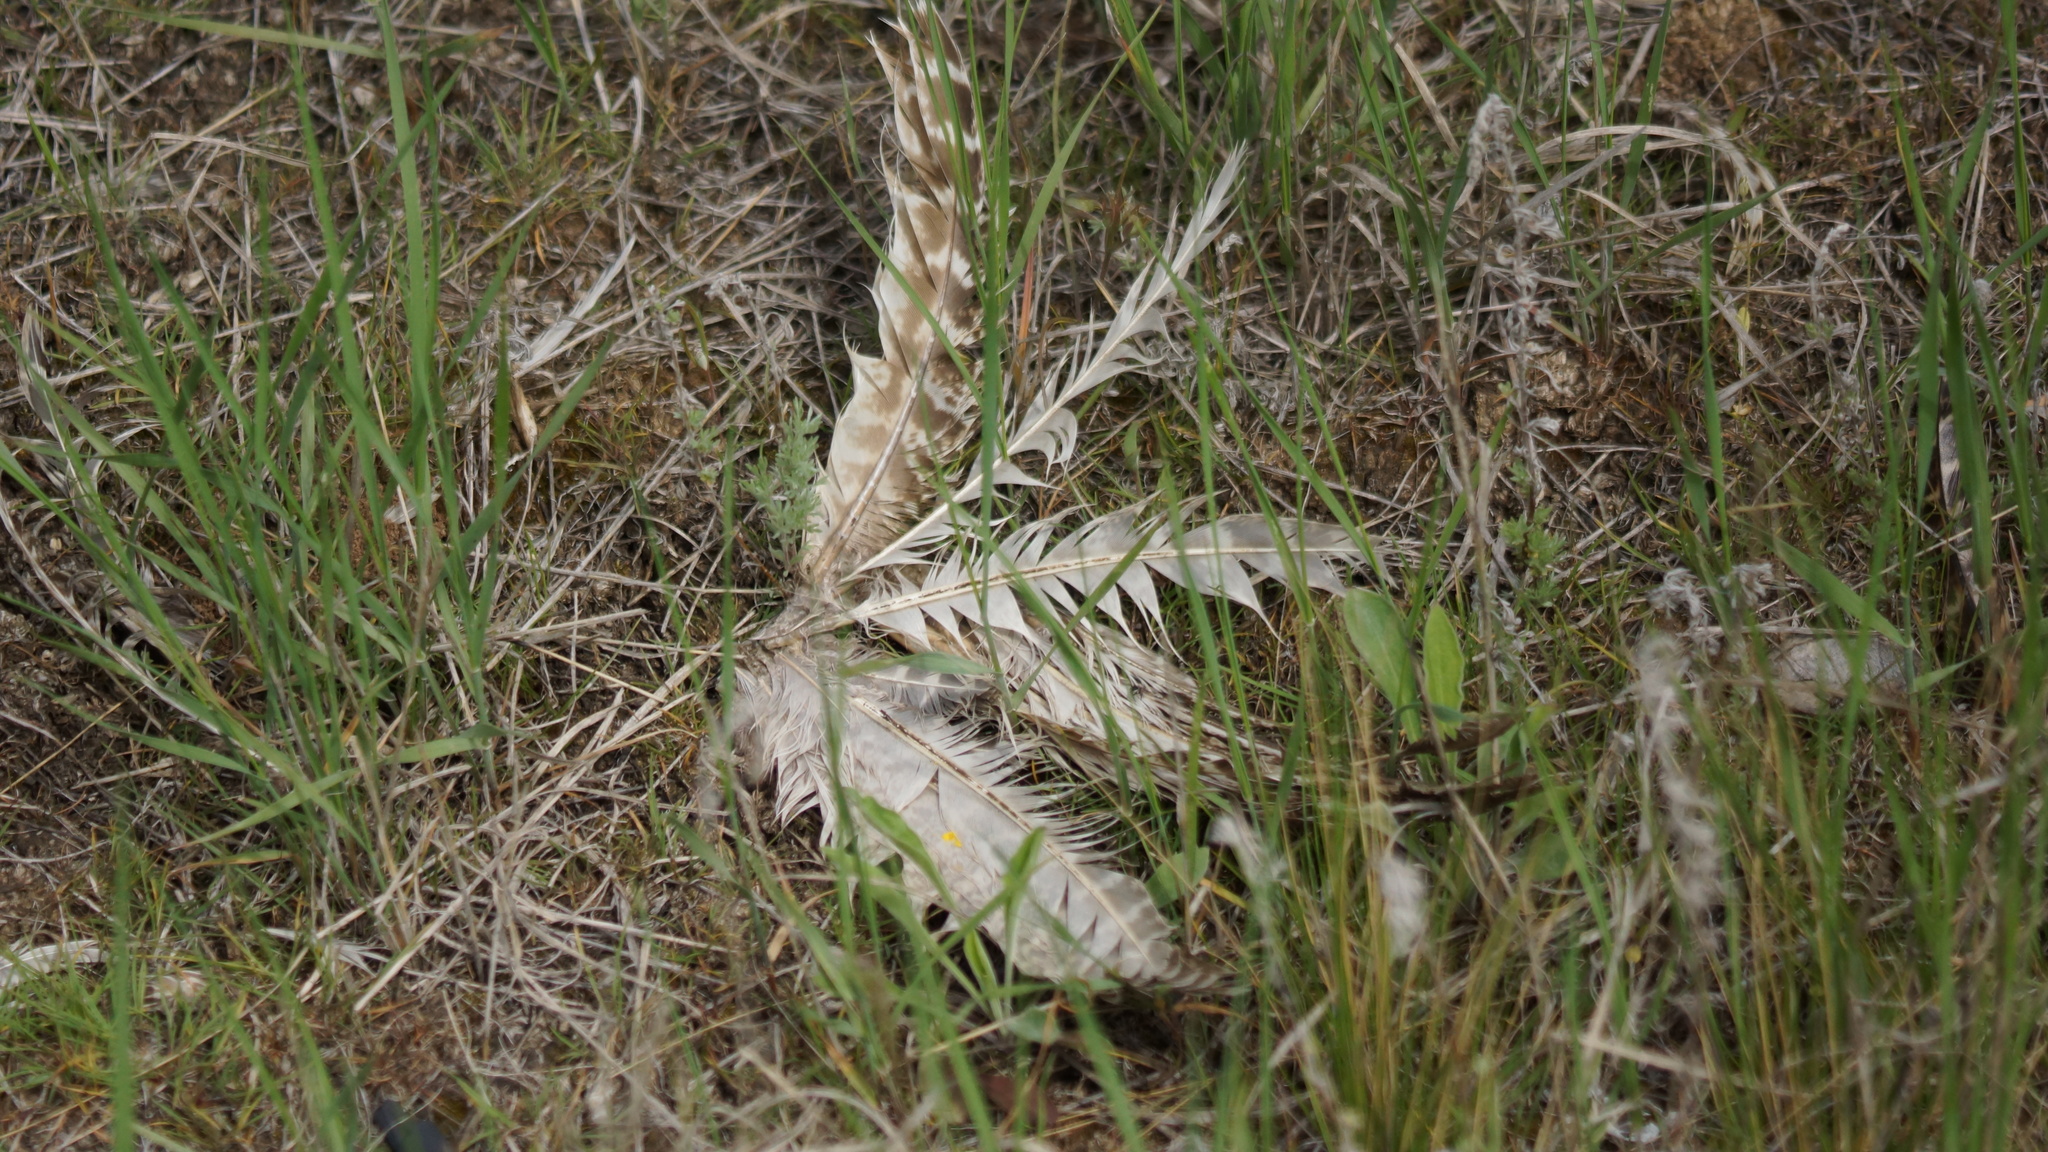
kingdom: Animalia
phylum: Chordata
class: Aves
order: Galliformes
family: Phasianidae
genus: Phasianus
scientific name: Phasianus colchicus
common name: Common pheasant
